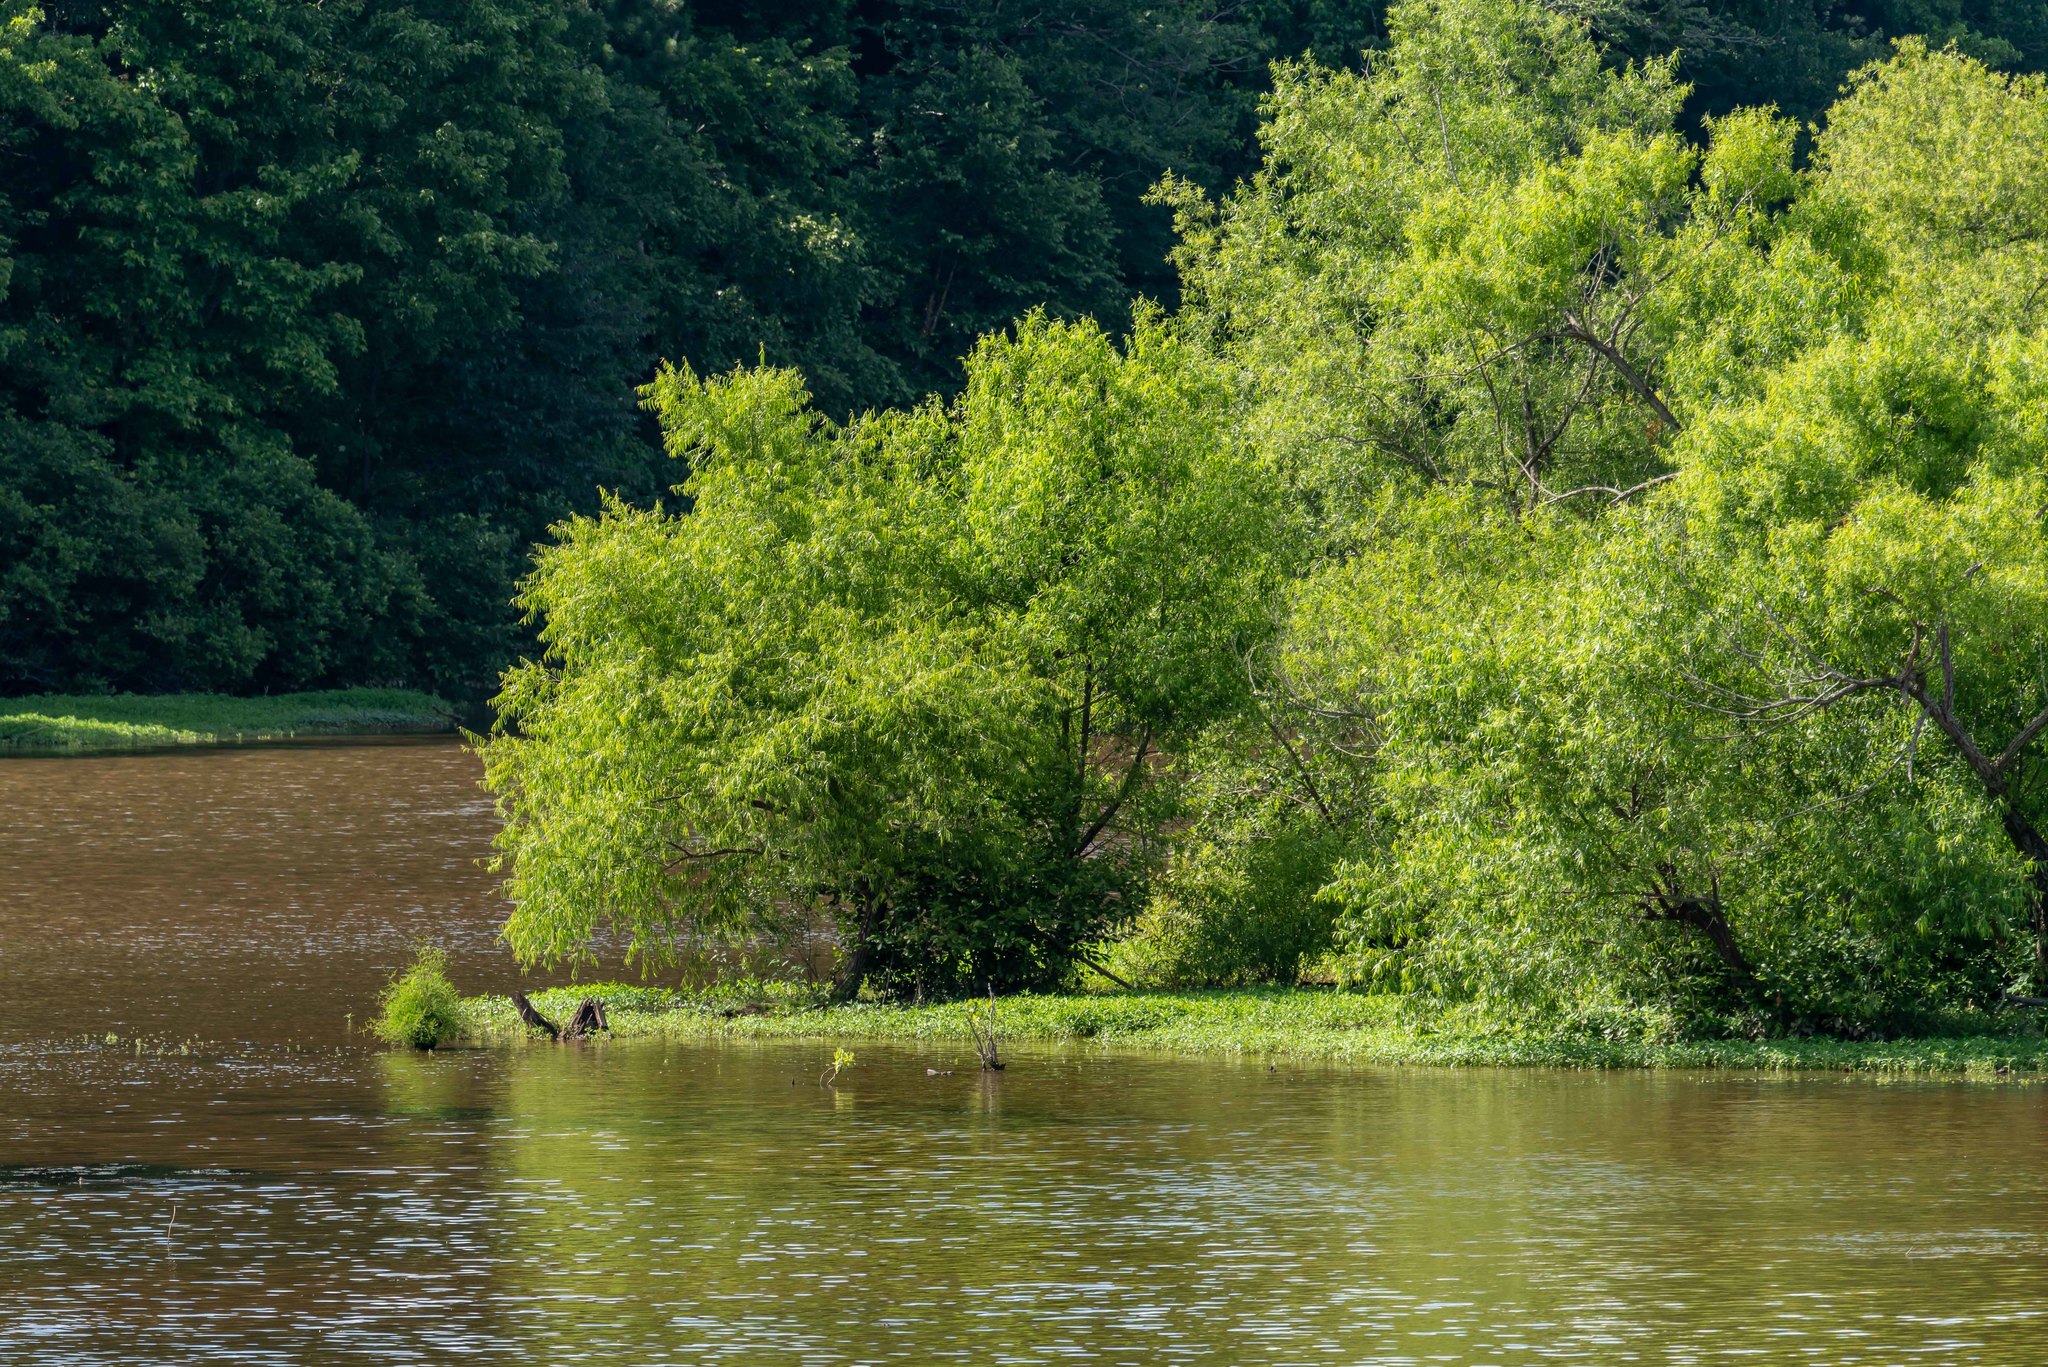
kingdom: Plantae
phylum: Tracheophyta
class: Magnoliopsida
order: Malpighiales
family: Salicaceae
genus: Salix
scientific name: Salix nigra
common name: Black willow
